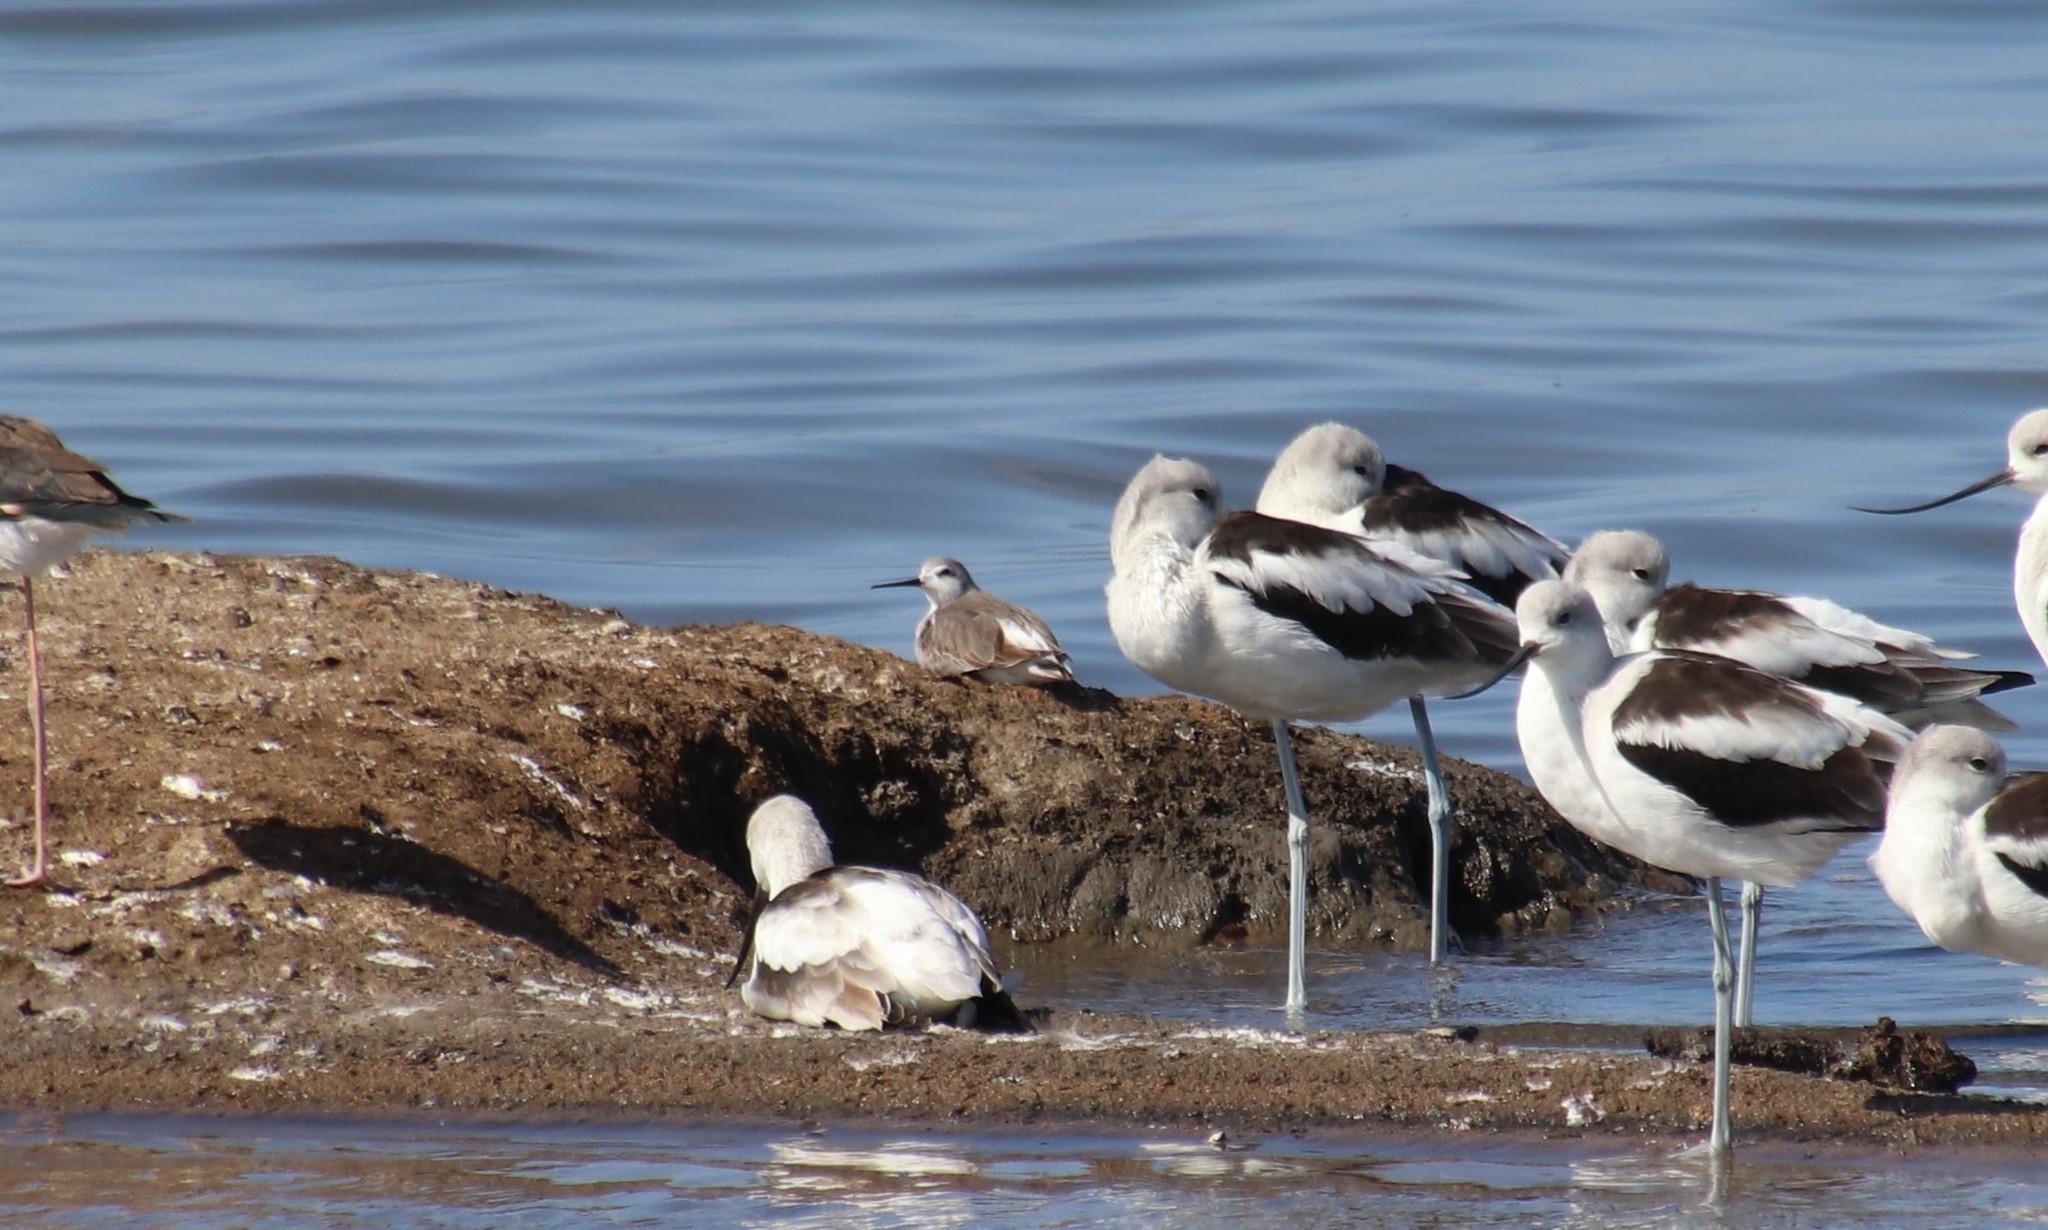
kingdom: Animalia
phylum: Chordata
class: Aves
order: Charadriiformes
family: Scolopacidae
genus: Phalaropus
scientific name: Phalaropus tricolor
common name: Wilson's phalarope
